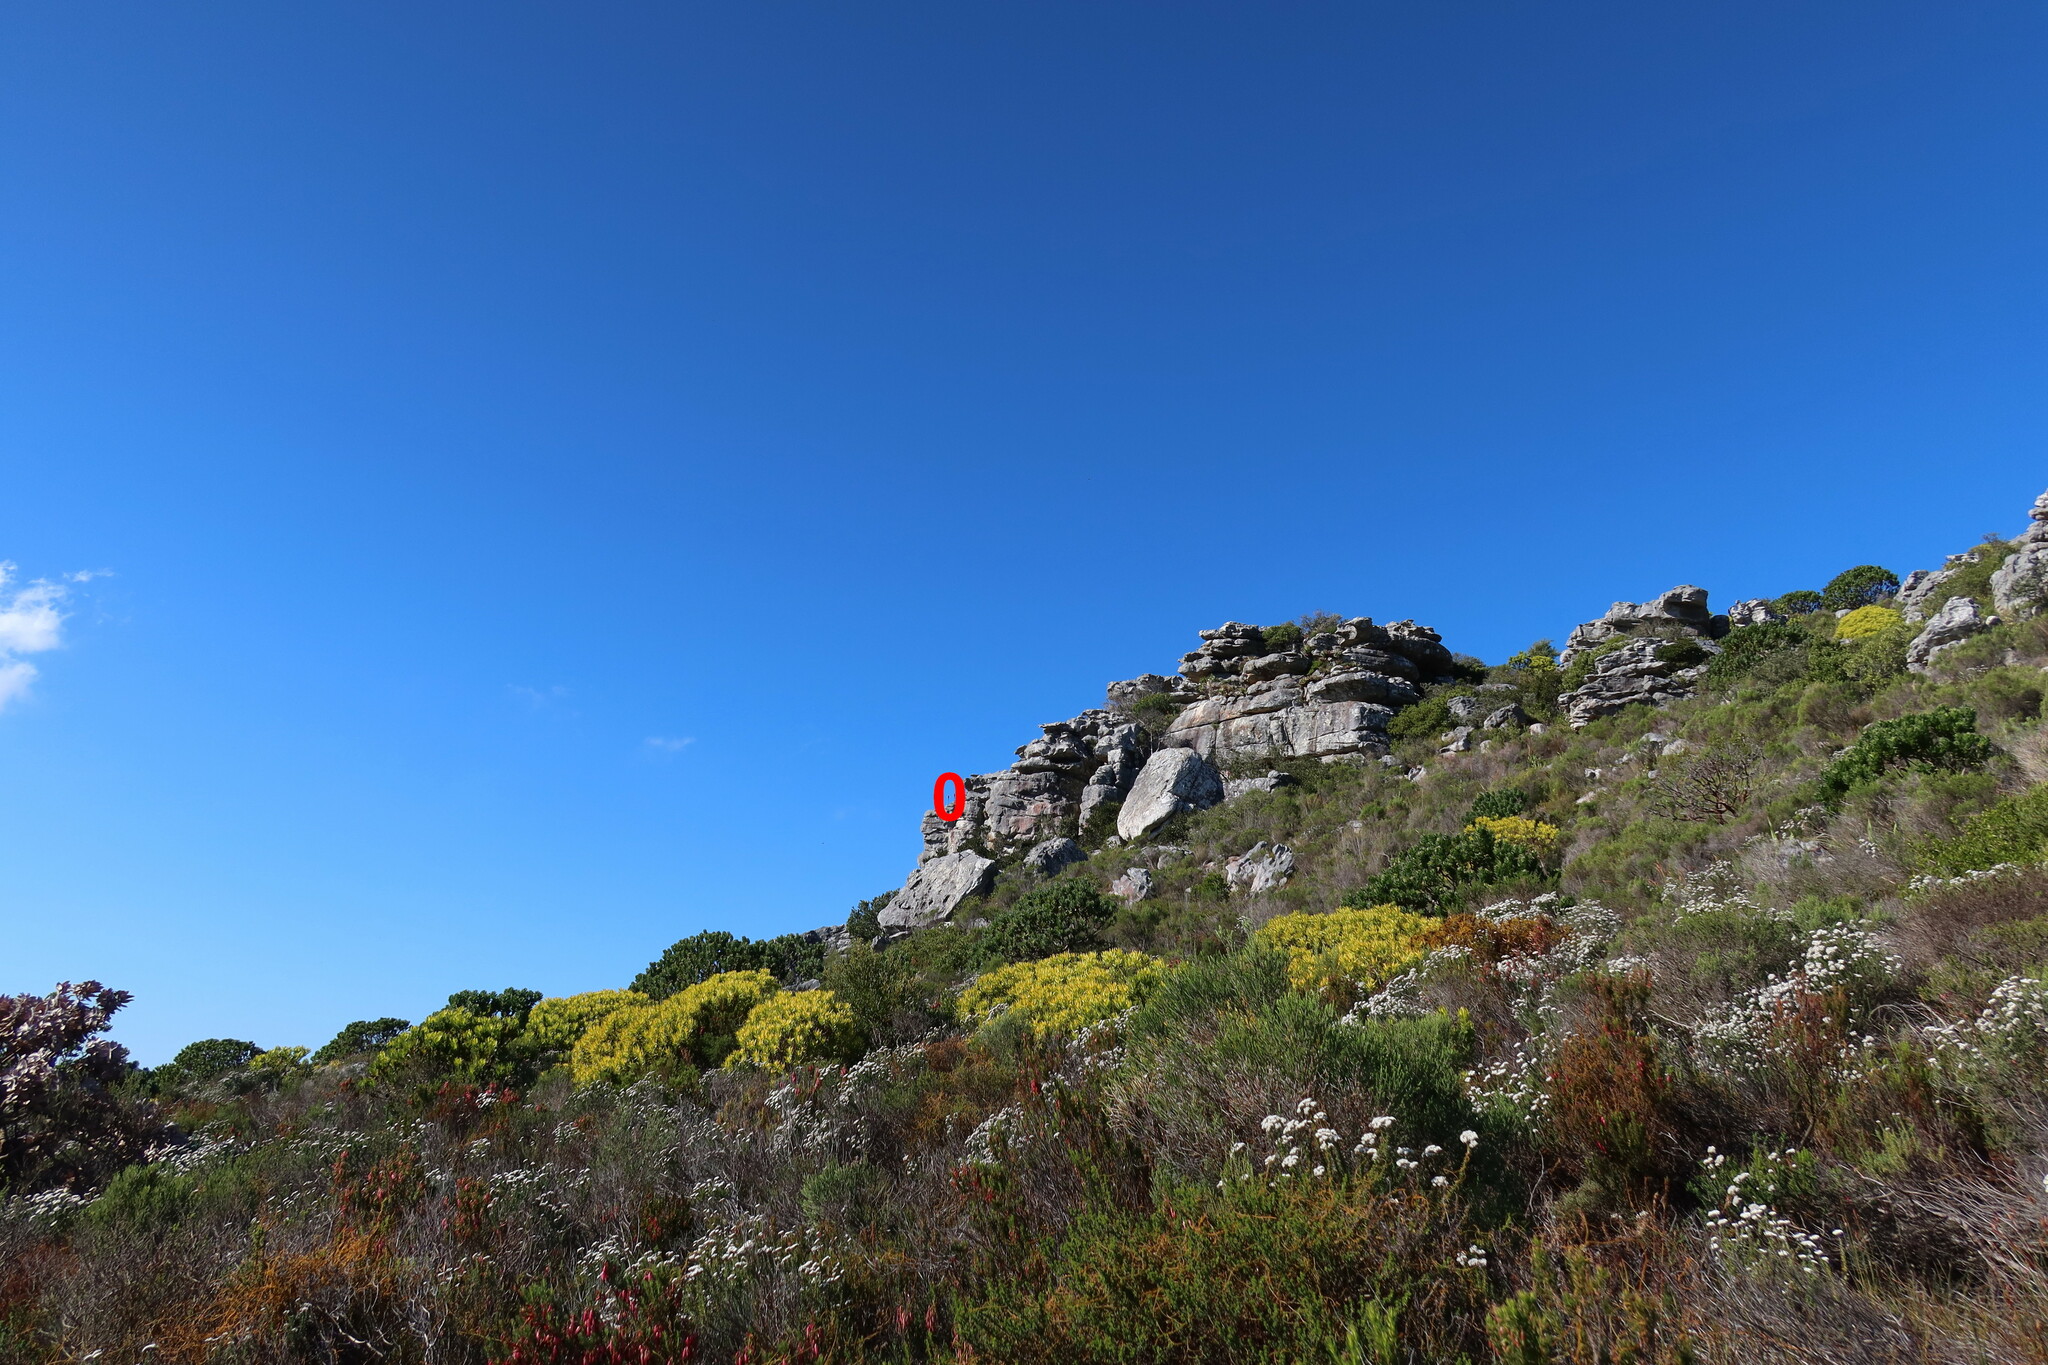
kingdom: Plantae
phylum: Tracheophyta
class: Liliopsida
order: Asparagales
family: Asphodelaceae
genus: Aloe
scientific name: Aloe succotrina
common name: Bombay aloe
